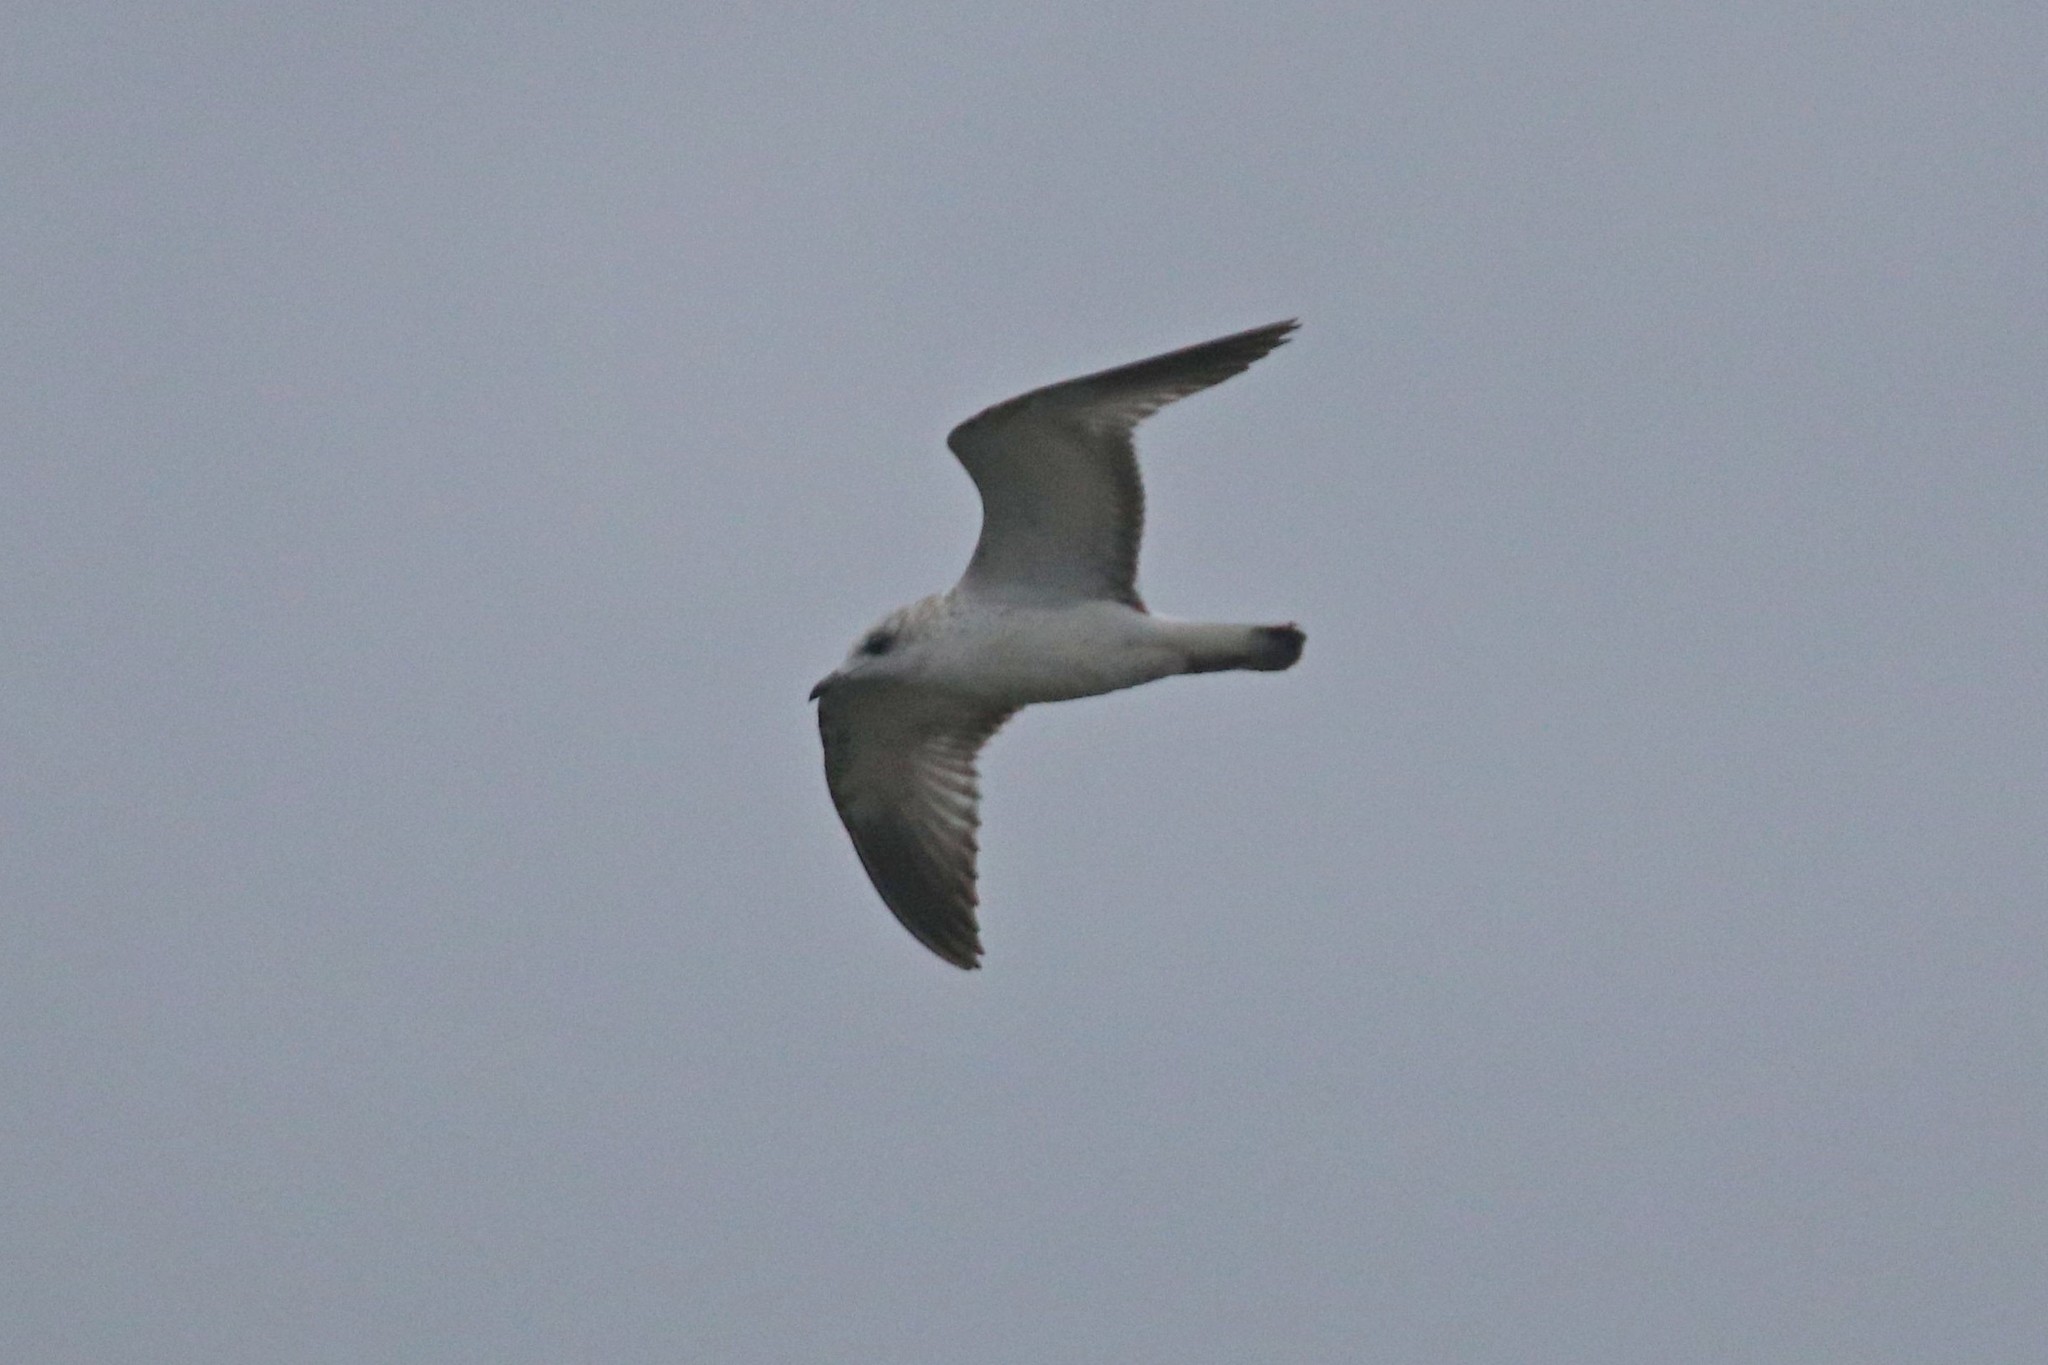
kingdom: Animalia
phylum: Chordata
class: Aves
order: Charadriiformes
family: Laridae
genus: Larus
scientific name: Larus canus
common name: Mew gull
